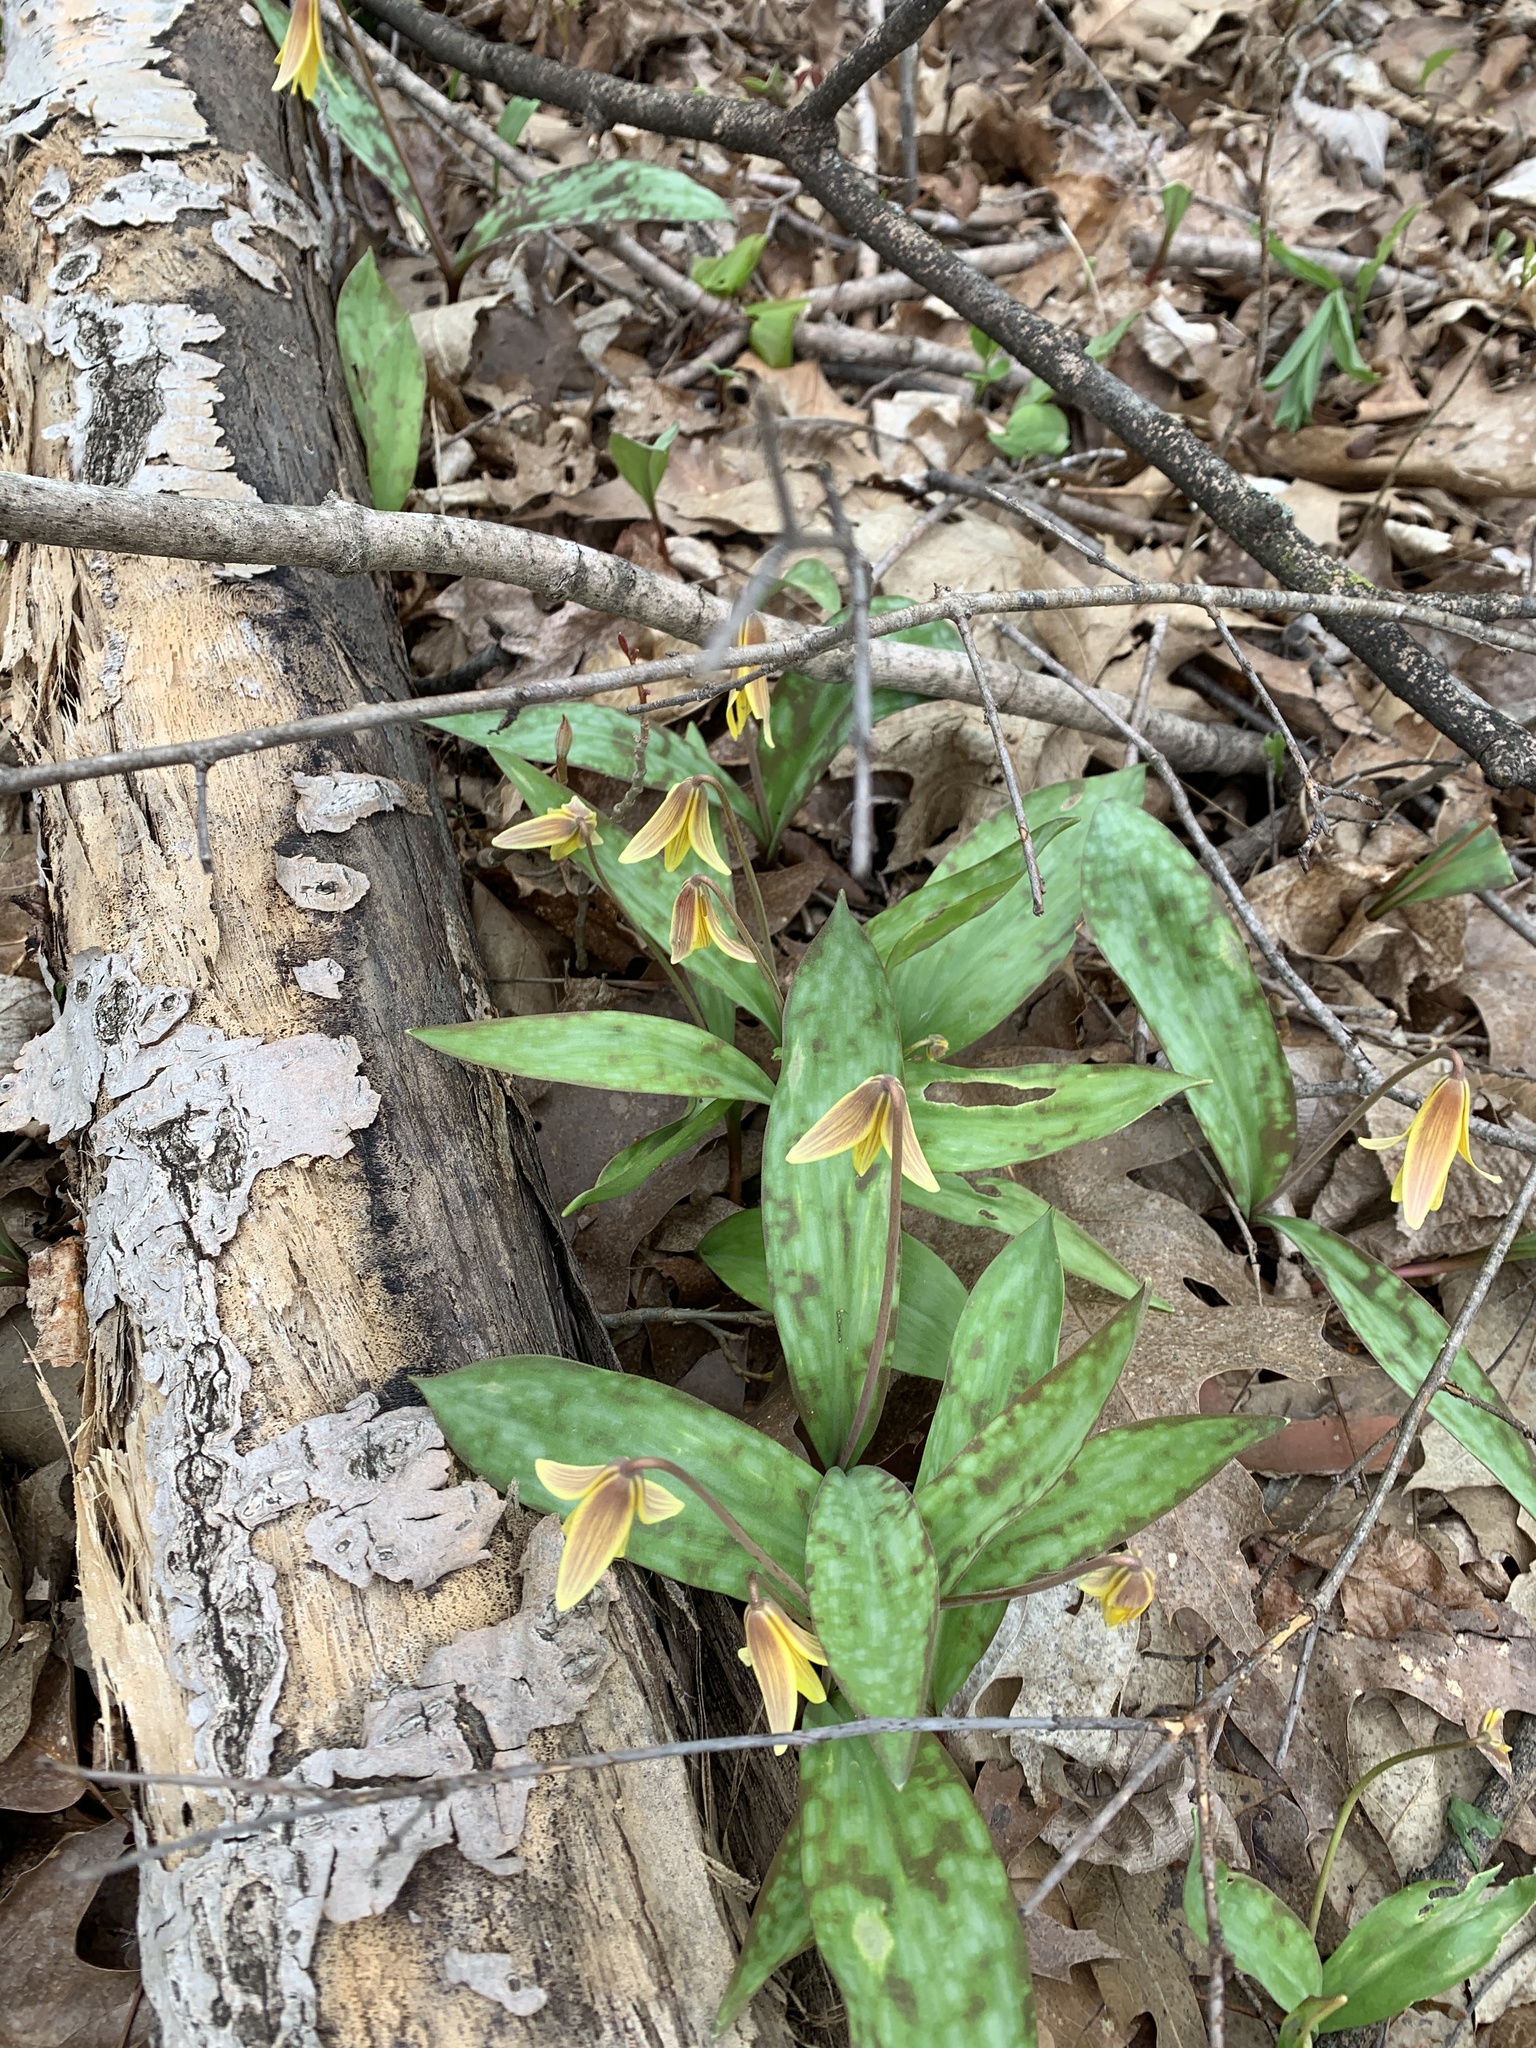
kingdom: Plantae
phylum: Tracheophyta
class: Liliopsida
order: Liliales
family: Liliaceae
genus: Erythronium
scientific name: Erythronium americanum
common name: Yellow adder's-tongue
